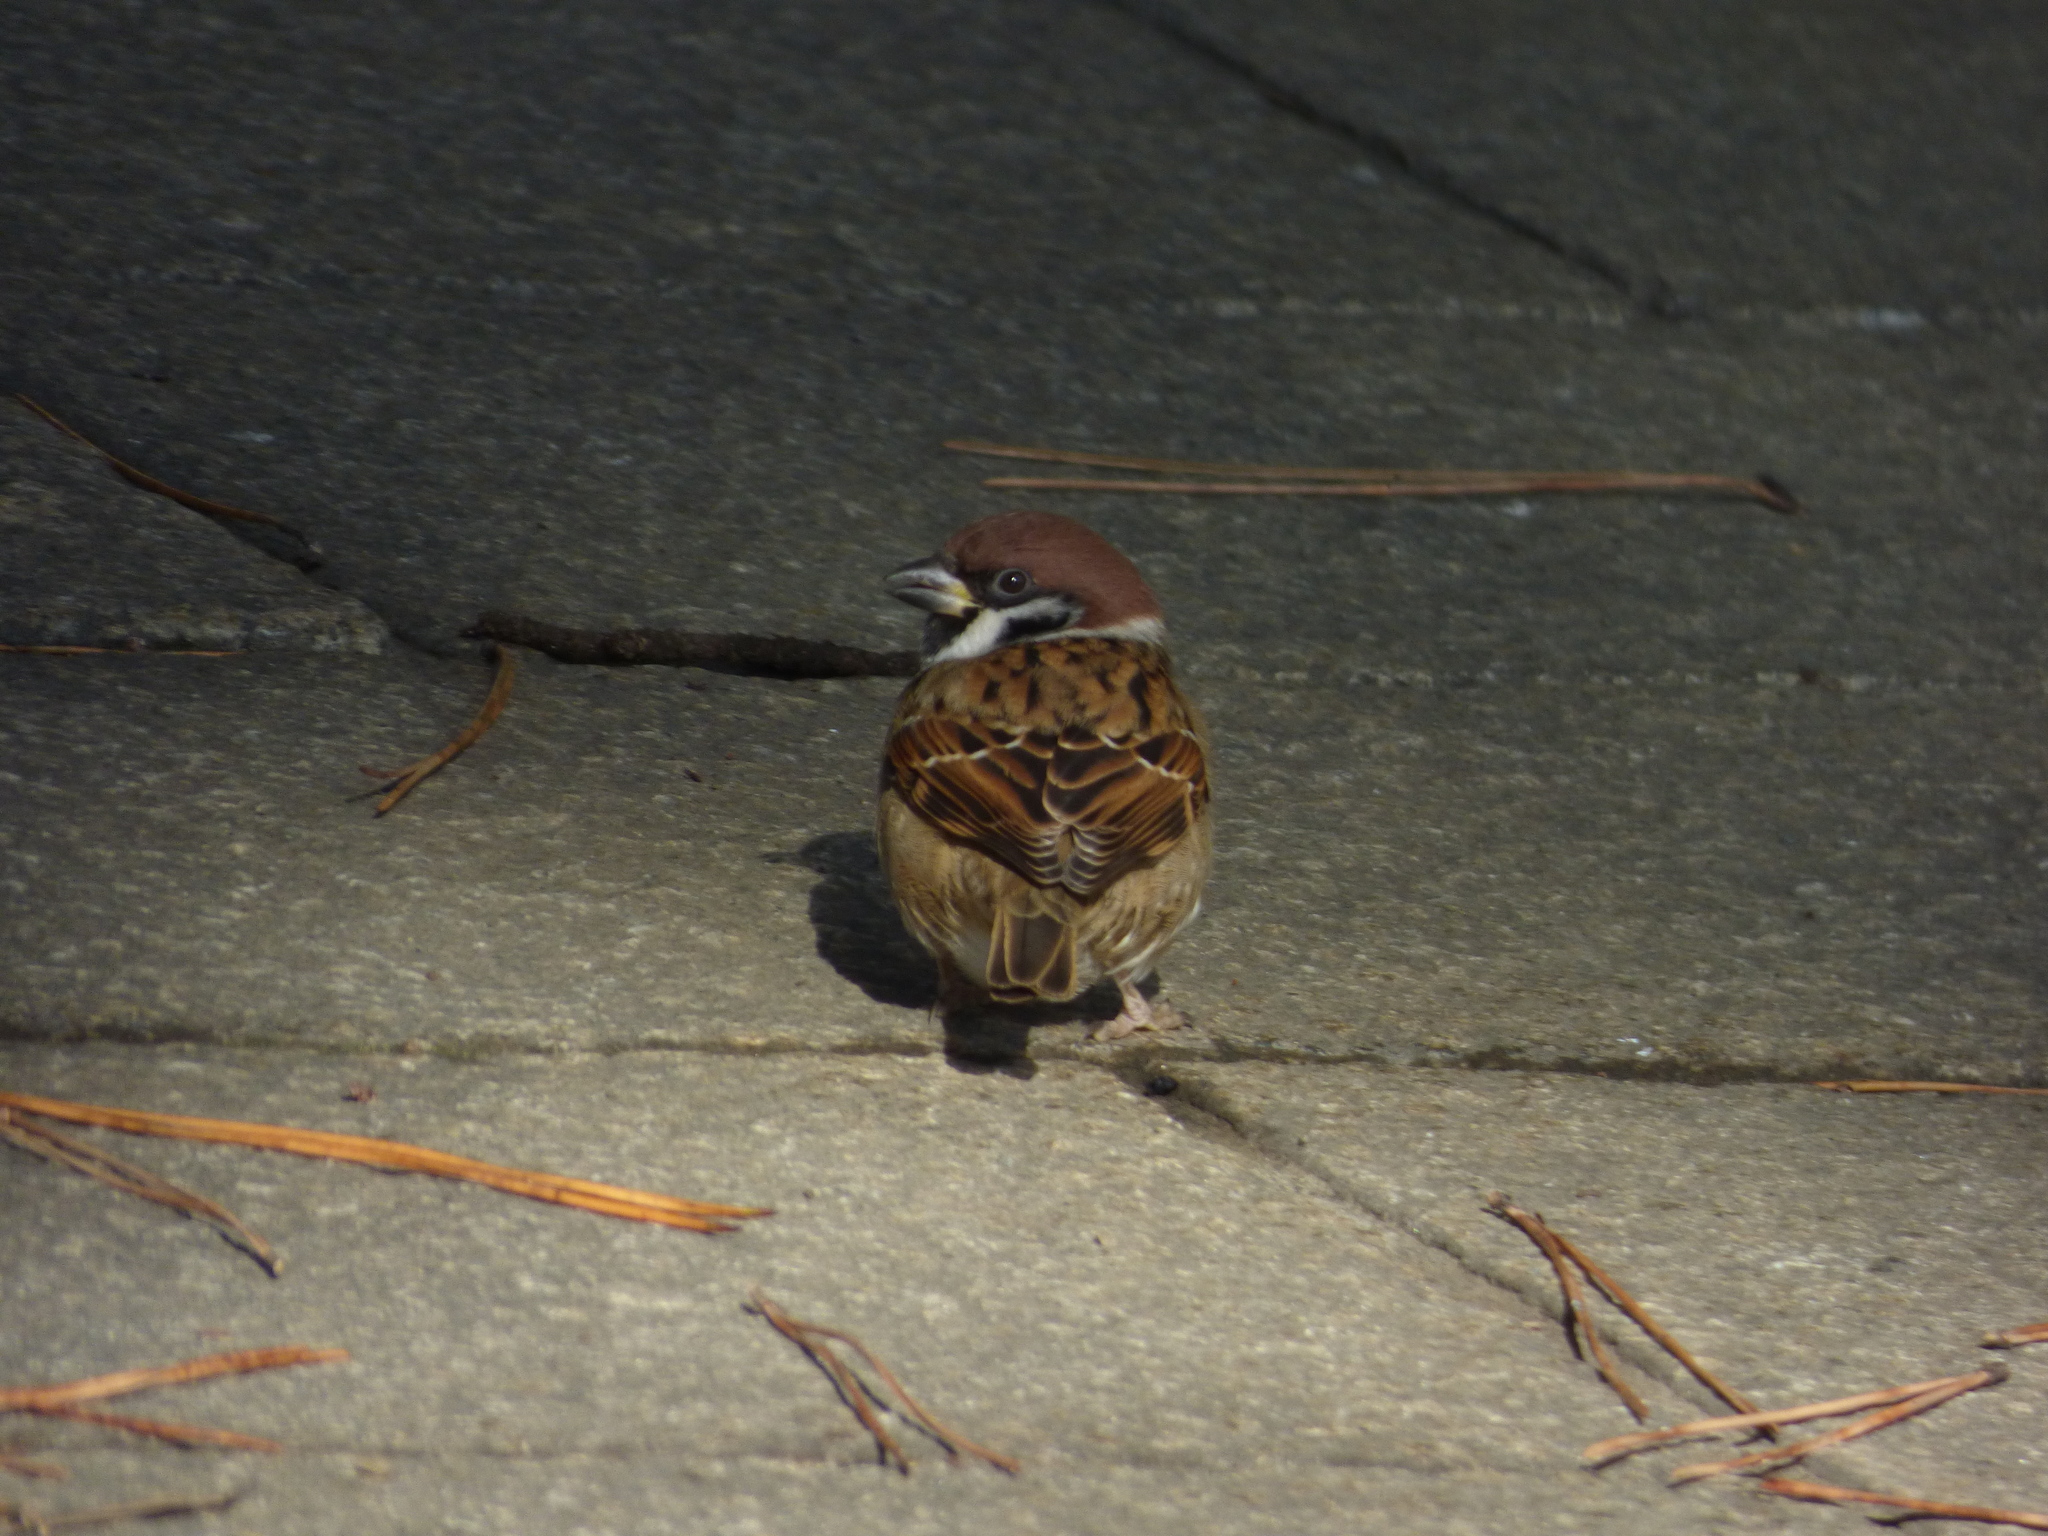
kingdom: Animalia
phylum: Chordata
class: Aves
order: Passeriformes
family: Passeridae
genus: Passer
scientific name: Passer montanus
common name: Eurasian tree sparrow
